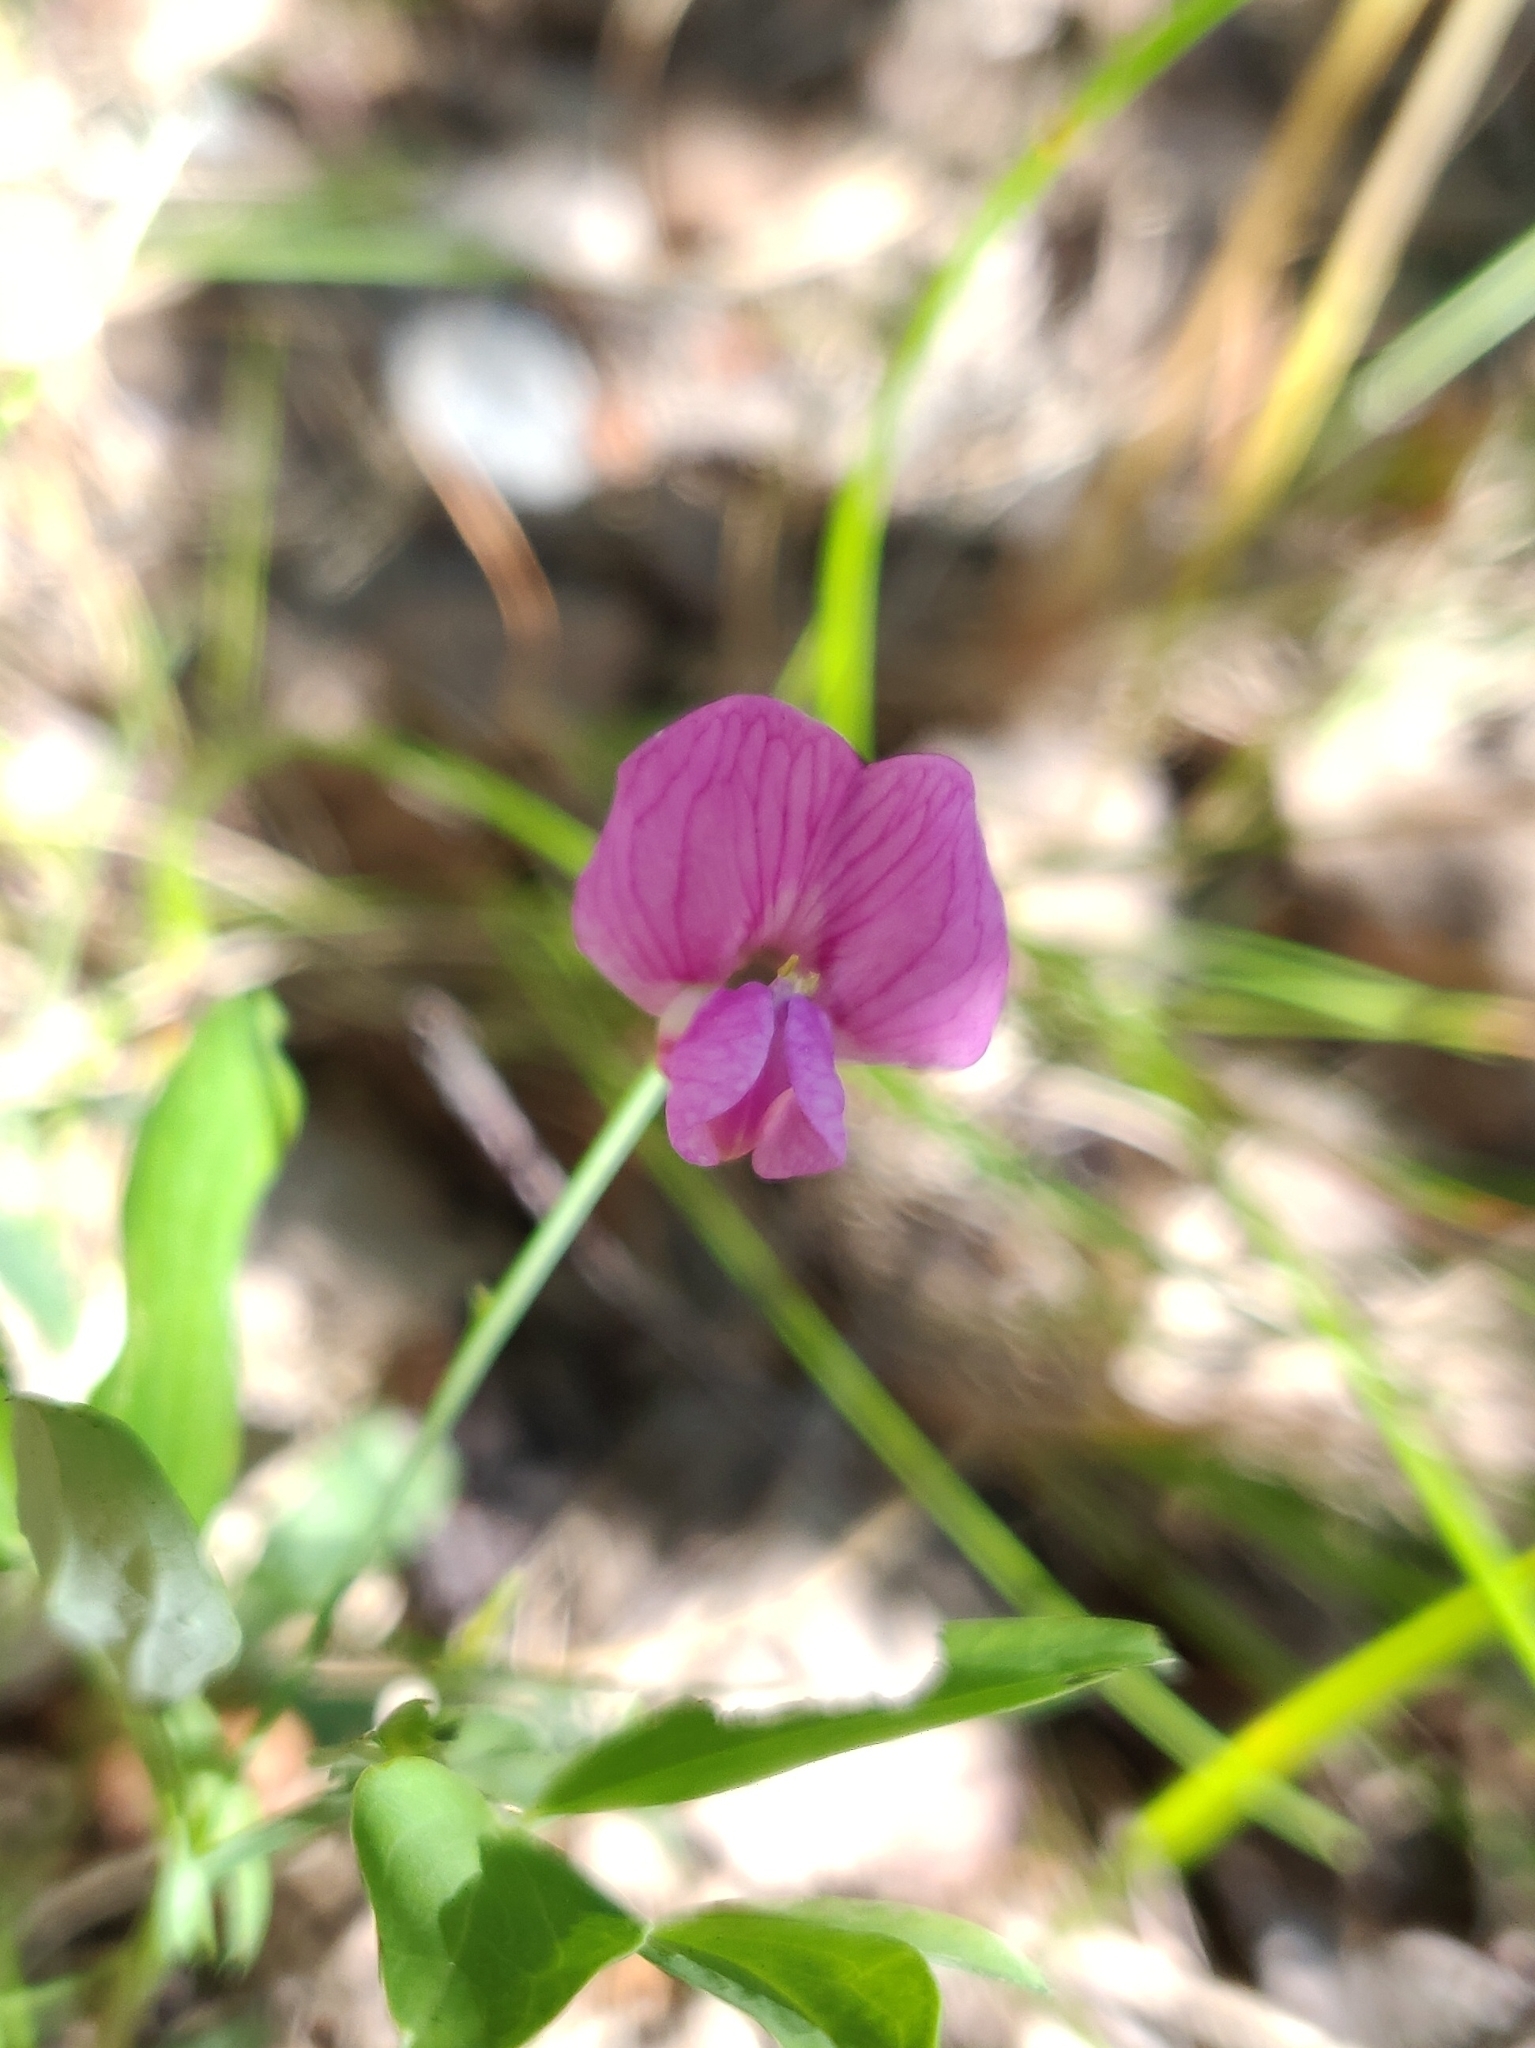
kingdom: Plantae
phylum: Tracheophyta
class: Magnoliopsida
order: Fabales
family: Fabaceae
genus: Lathyrus
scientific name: Lathyrus linifolius
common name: Bitter-vetch
